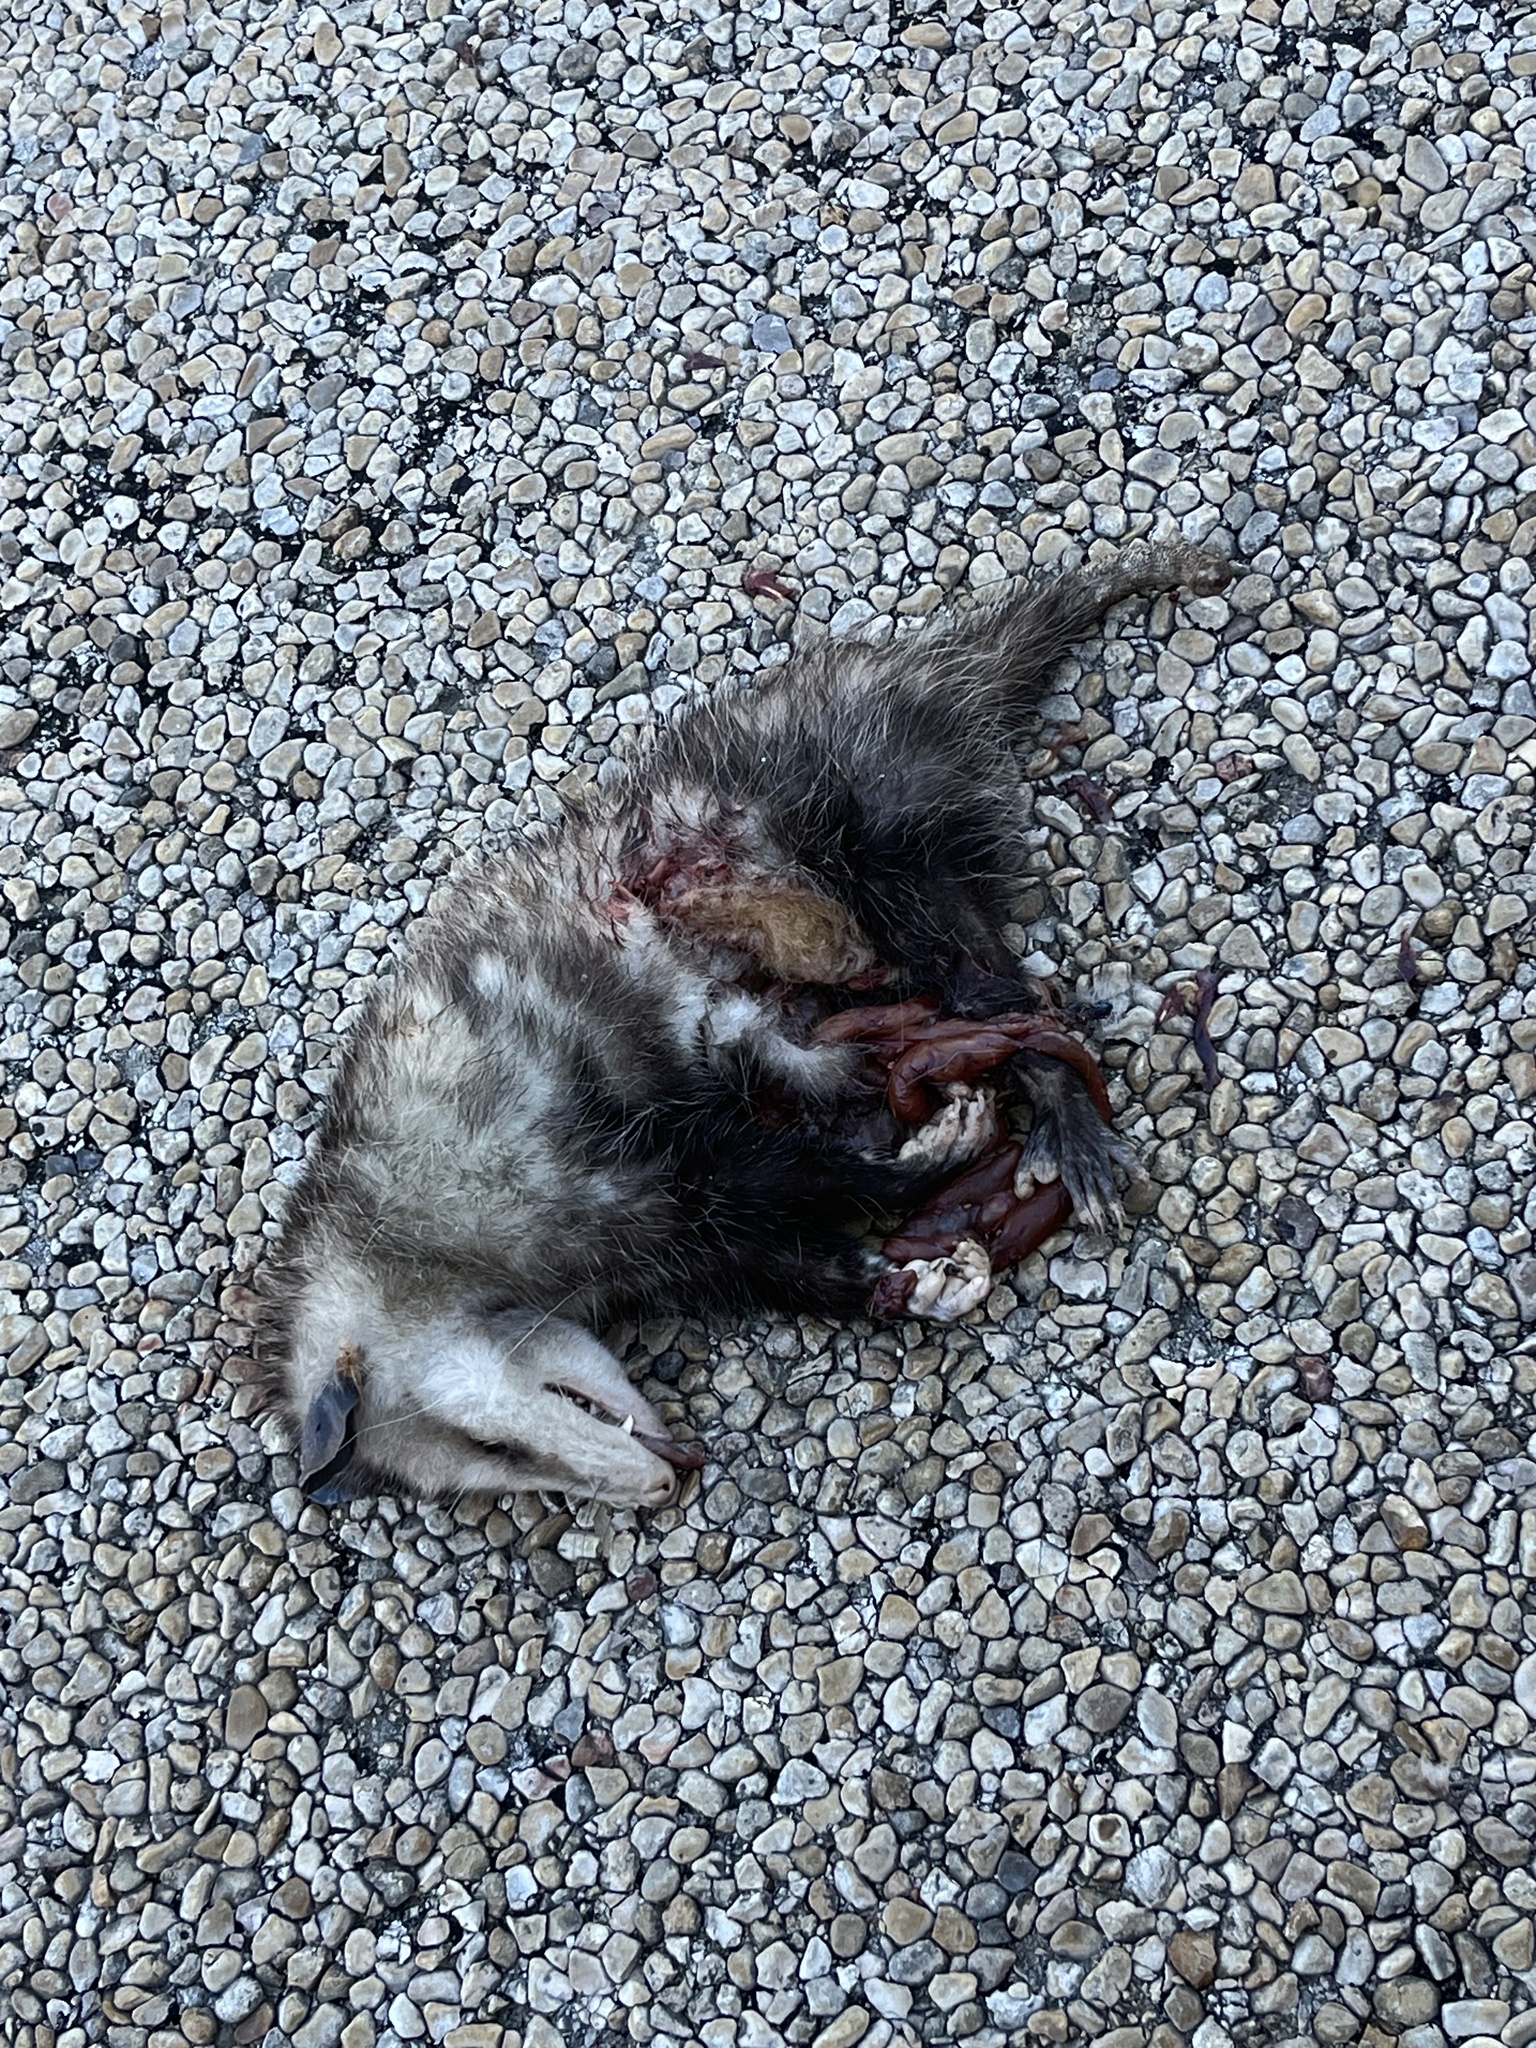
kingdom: Animalia
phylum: Chordata
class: Mammalia
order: Didelphimorphia
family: Didelphidae
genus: Didelphis
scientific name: Didelphis virginiana
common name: Virginia opossum
